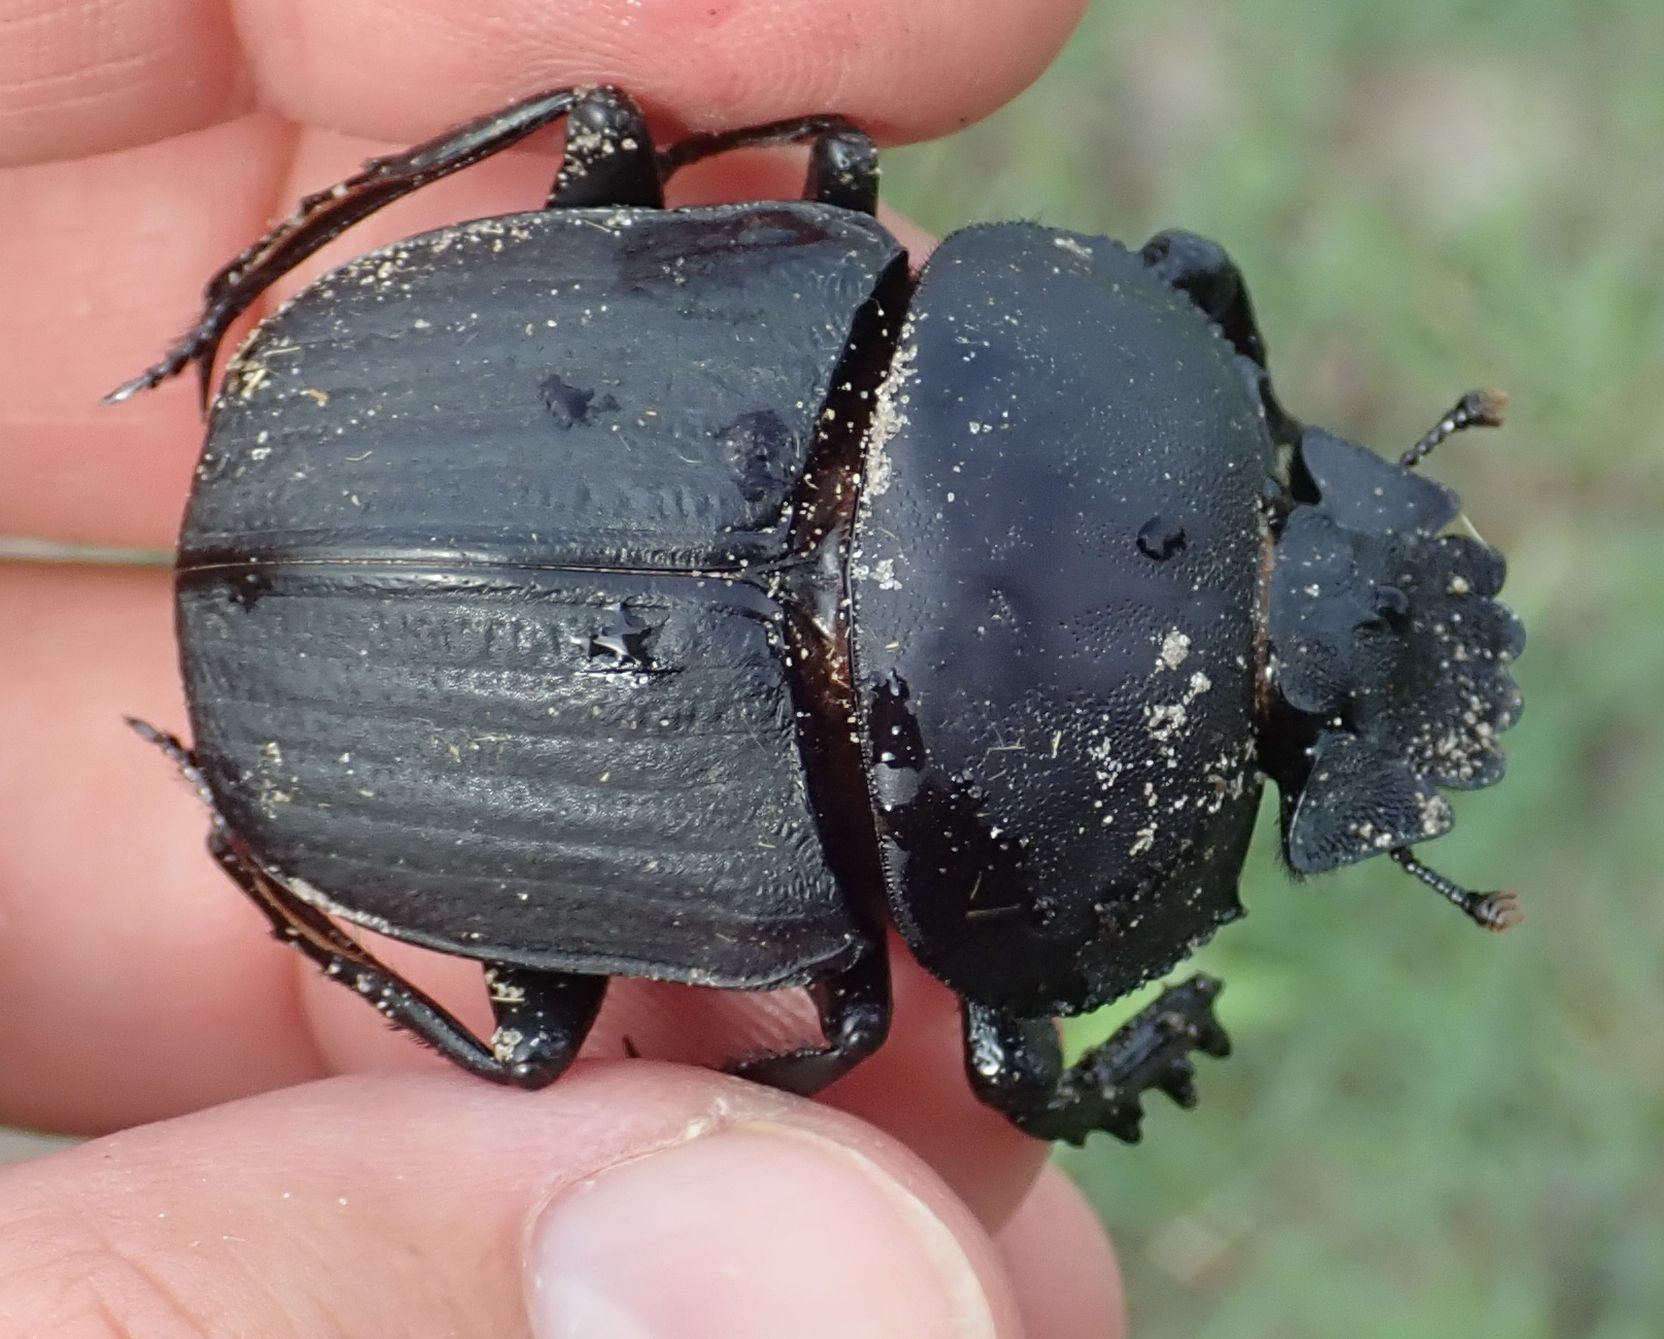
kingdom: Animalia
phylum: Arthropoda
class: Insecta
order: Coleoptera
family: Scarabaeidae
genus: Kheper
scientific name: Kheper lamarcki
